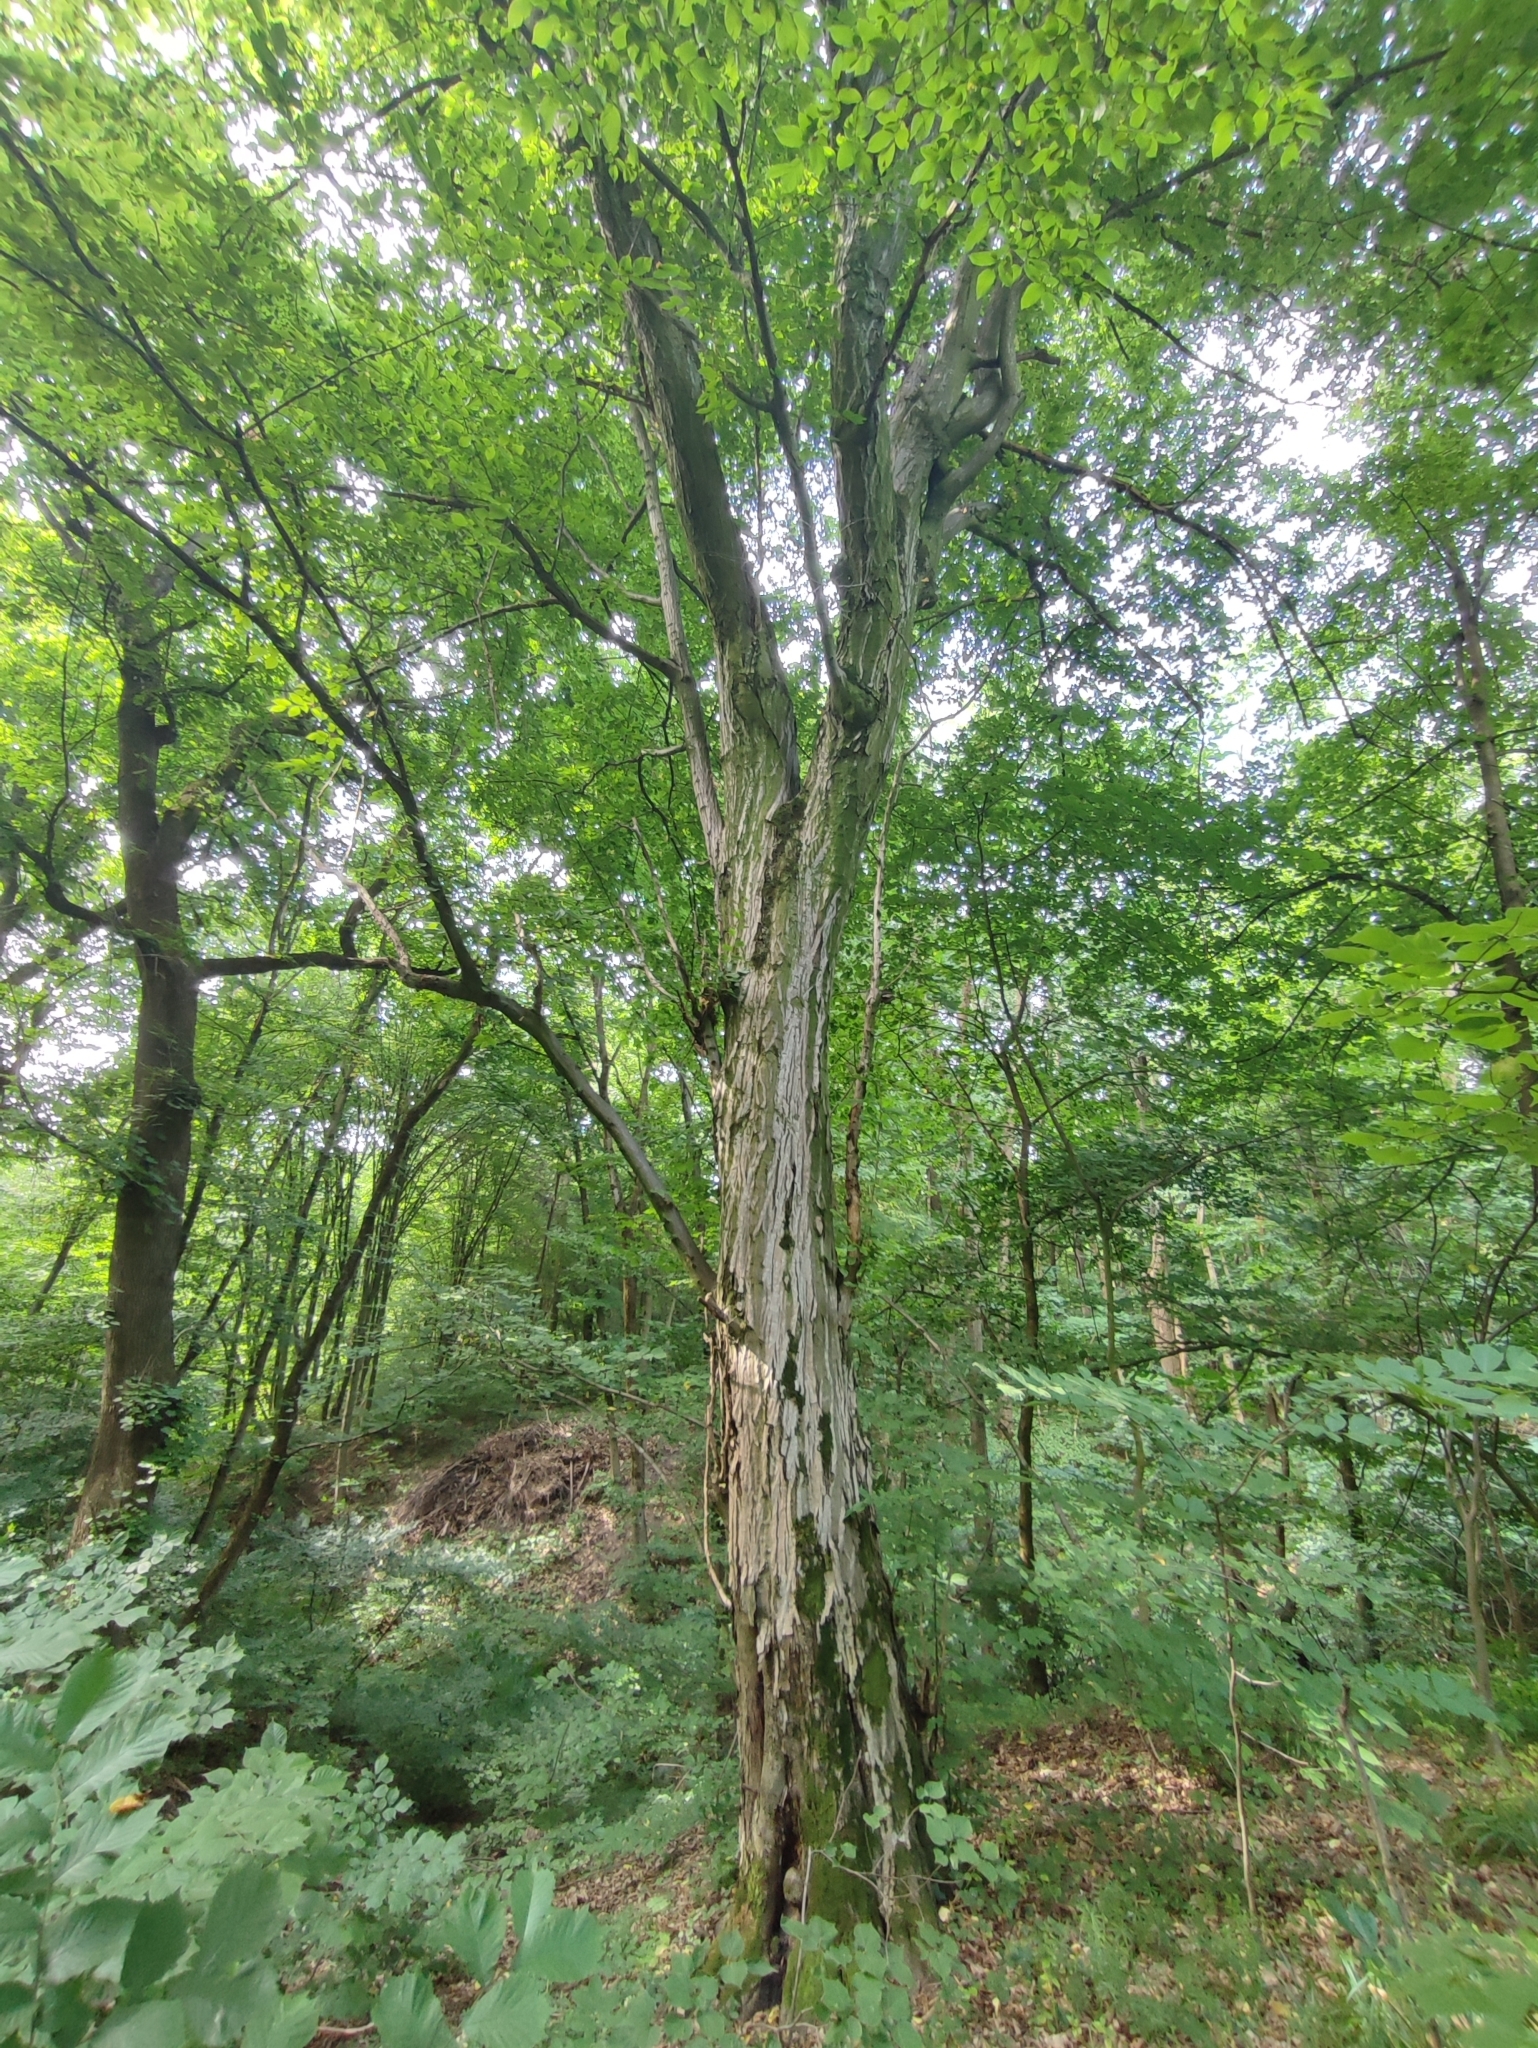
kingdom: Plantae
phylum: Tracheophyta
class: Magnoliopsida
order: Fagales
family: Betulaceae
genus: Carpinus
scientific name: Carpinus betulus
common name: Hornbeam
